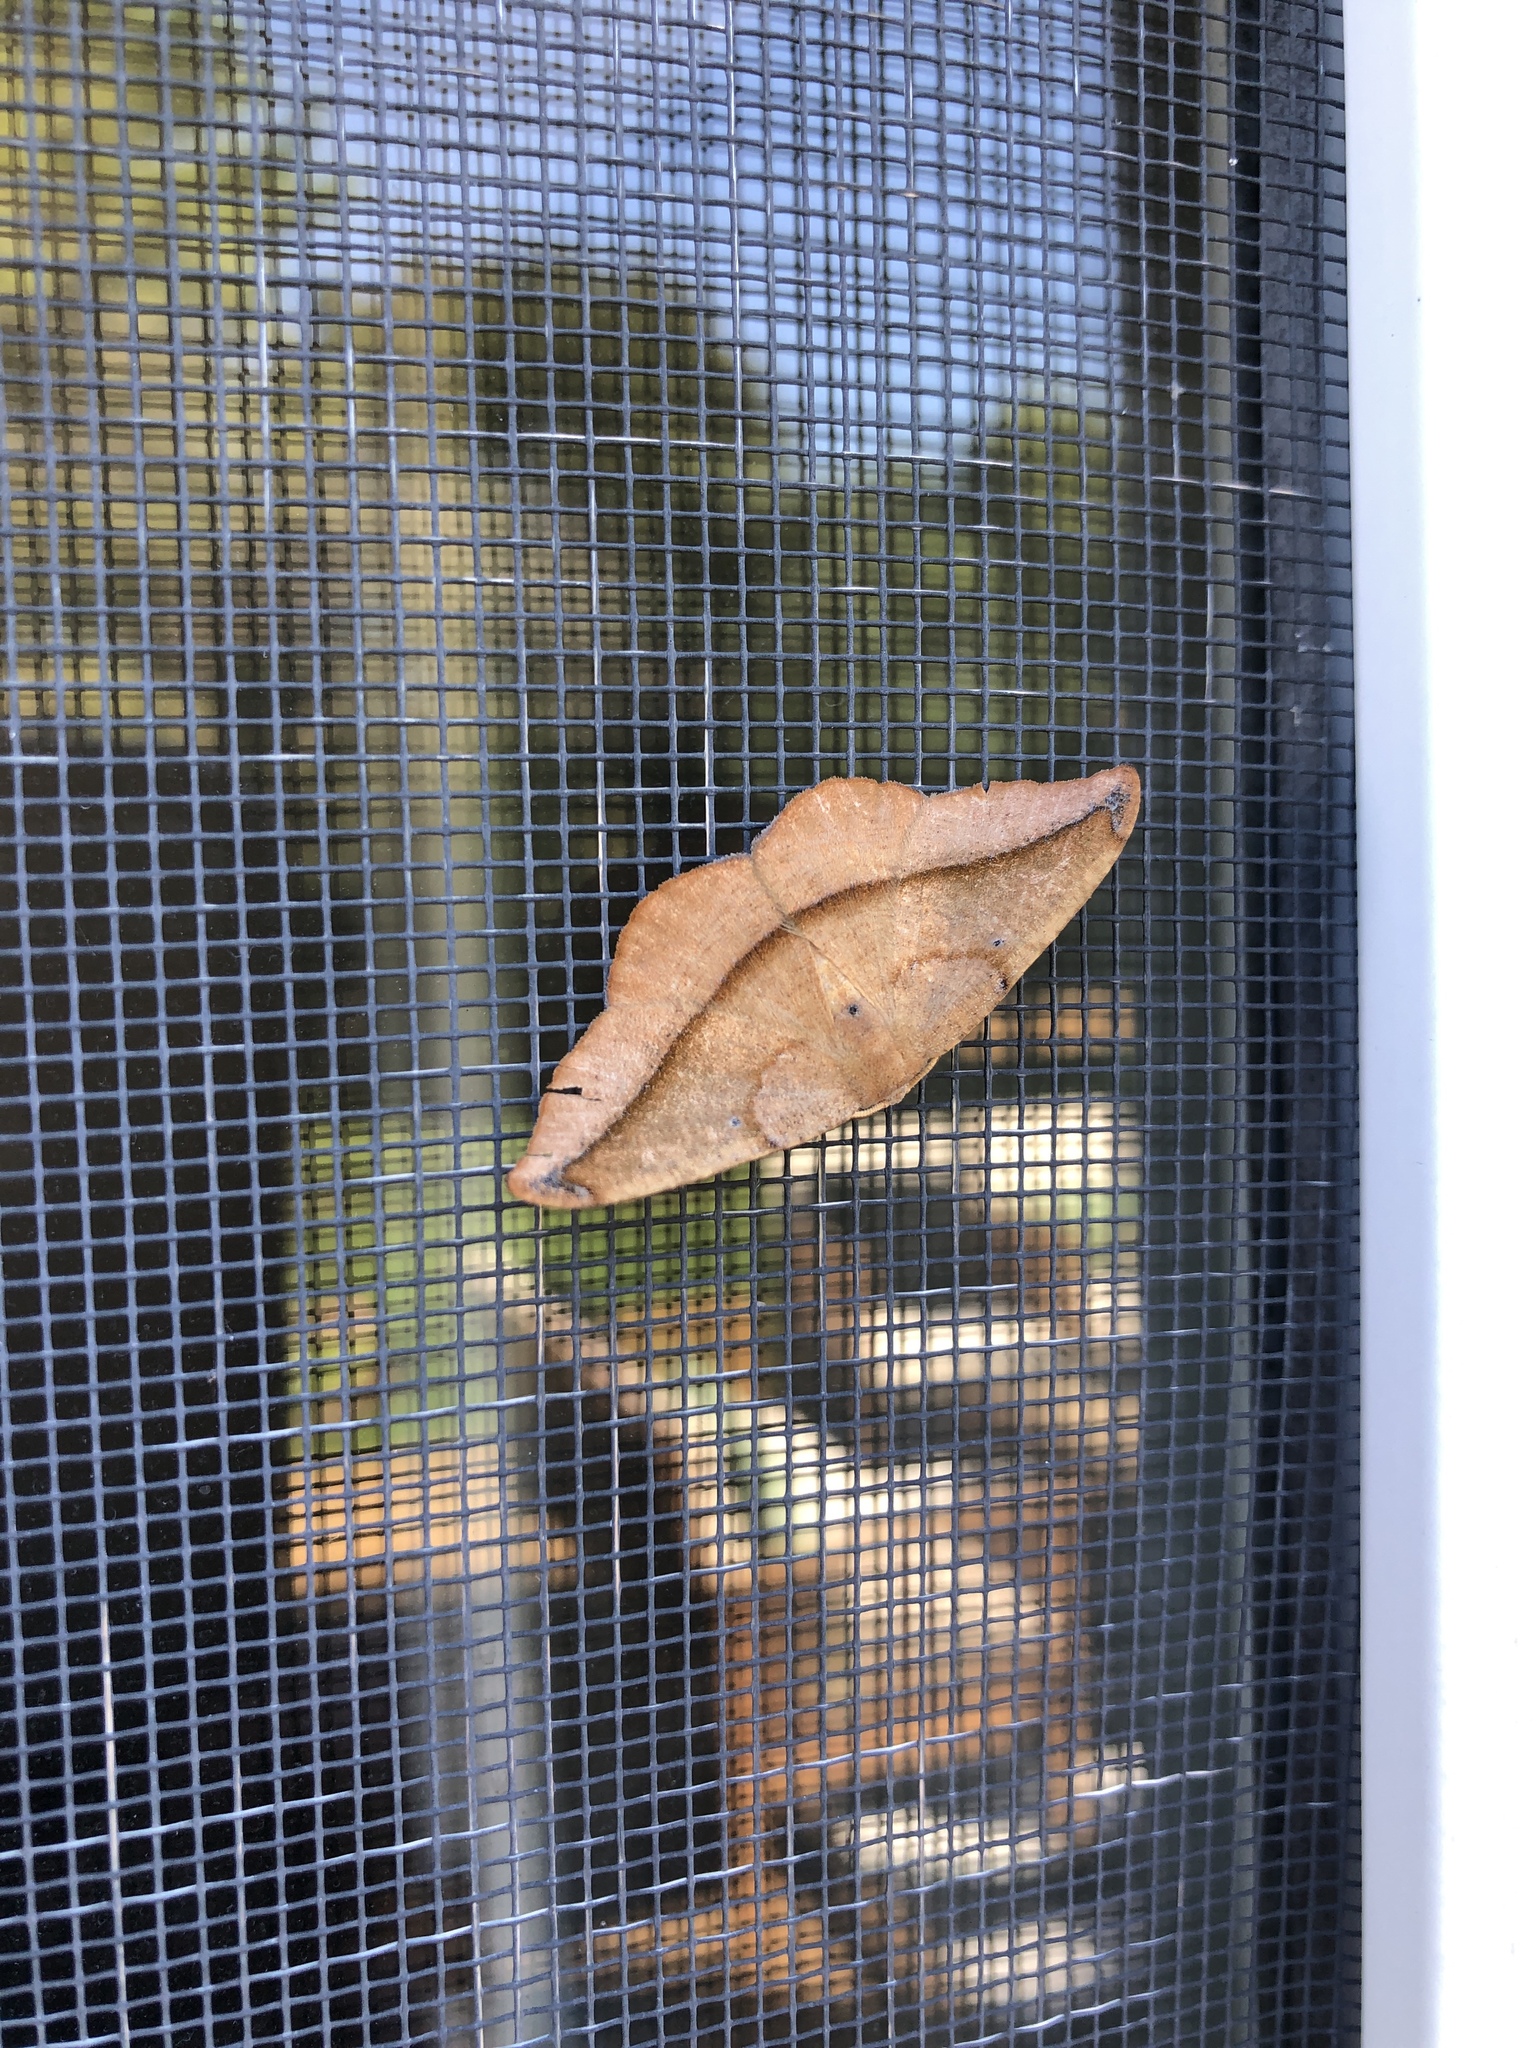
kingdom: Animalia
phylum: Arthropoda
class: Insecta
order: Lepidoptera
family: Geometridae
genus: Patalene
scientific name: Patalene olyzonaria
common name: Juniper geometer moth
